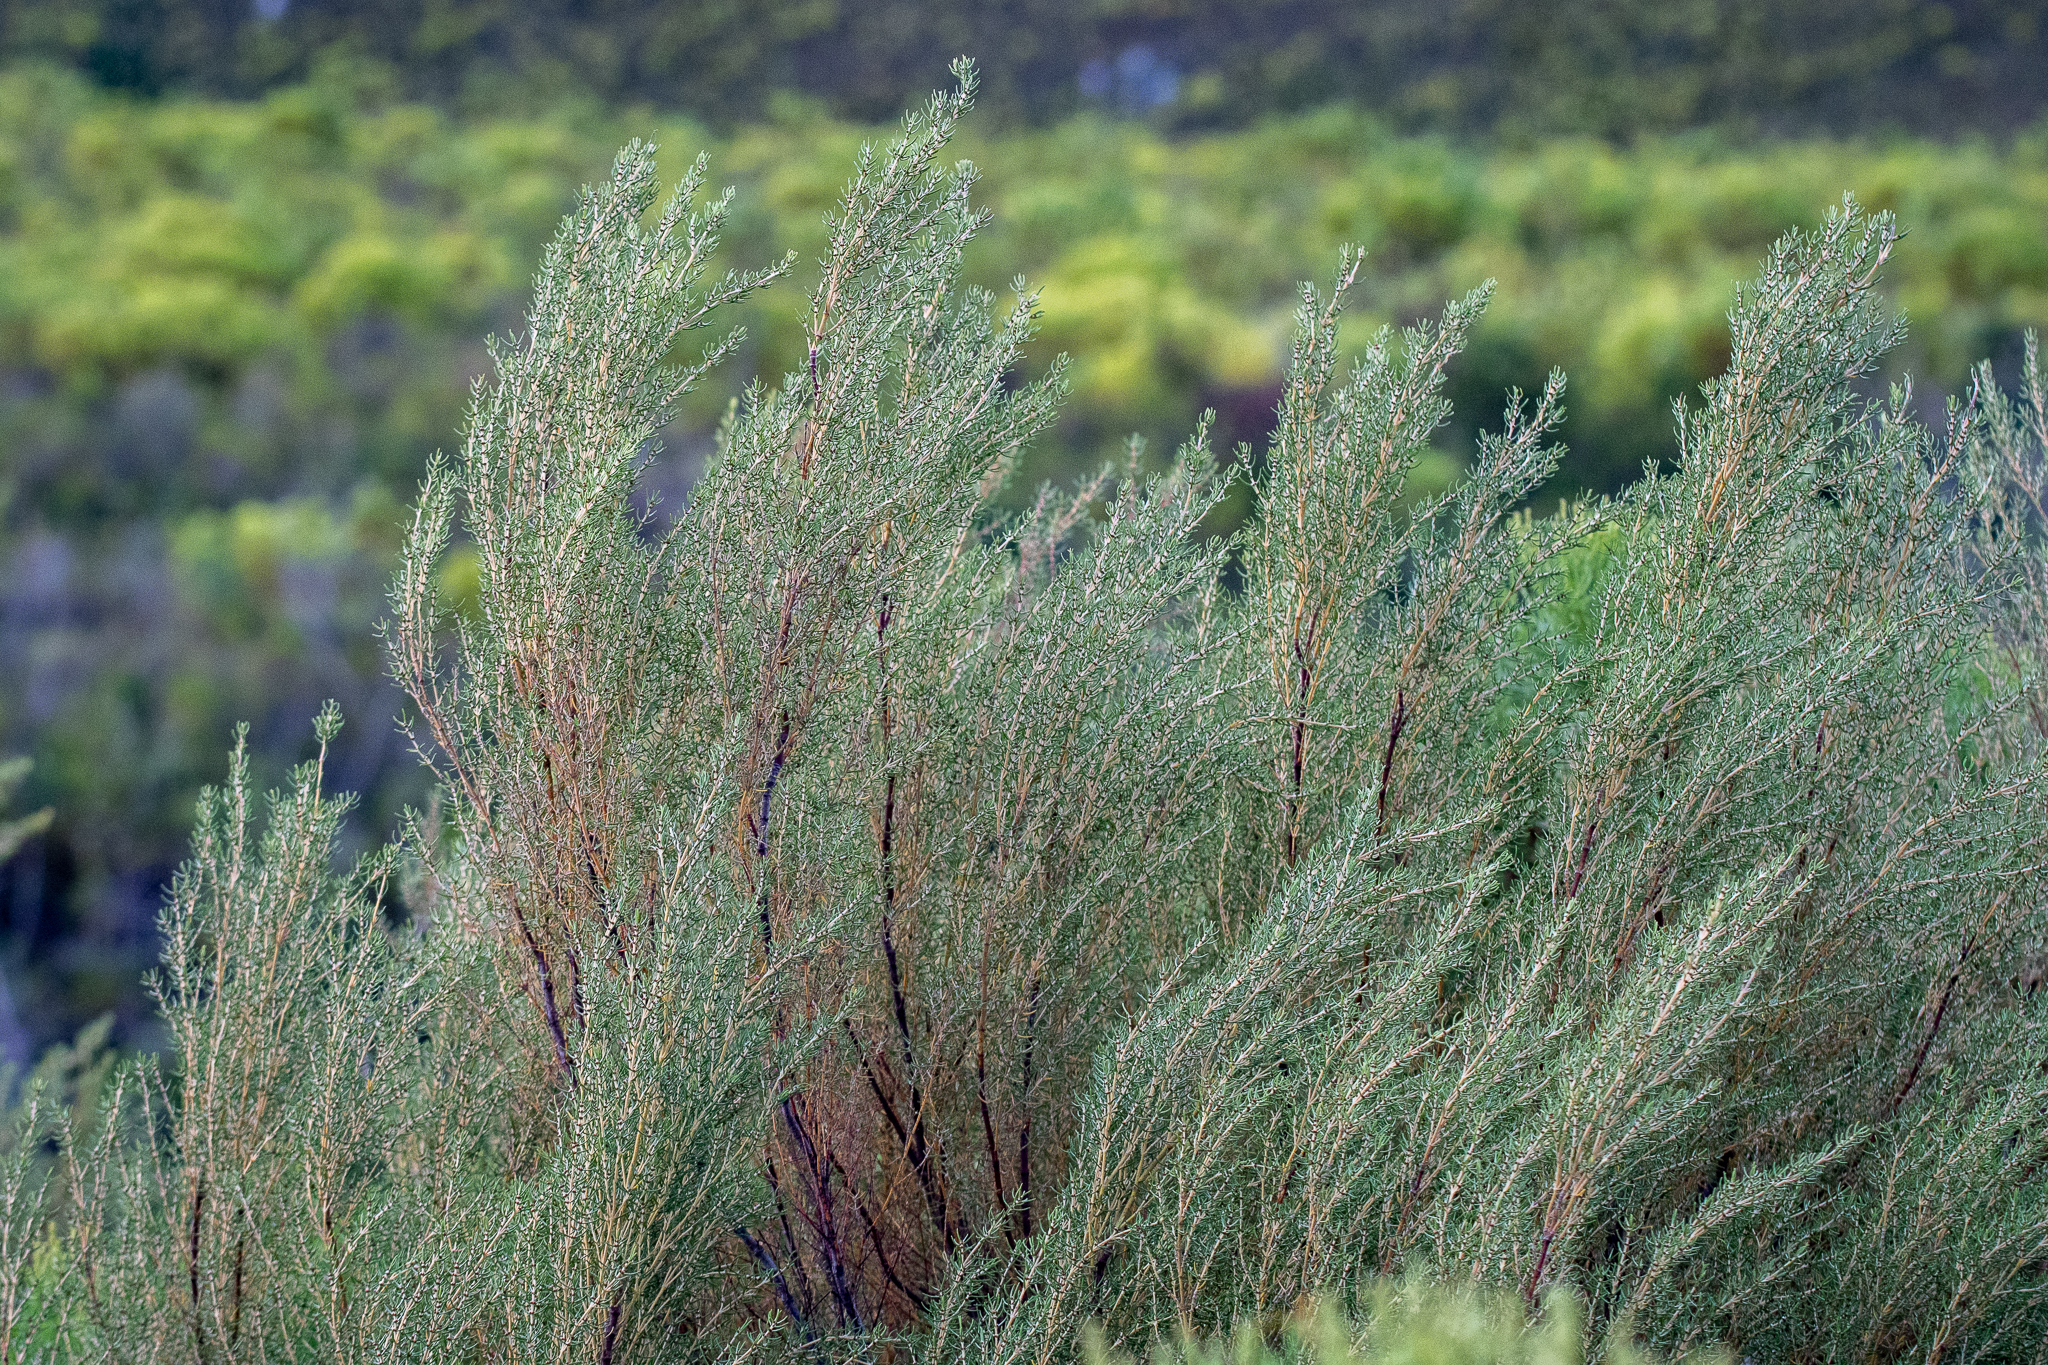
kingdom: Plantae
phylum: Tracheophyta
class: Magnoliopsida
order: Cornales
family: Grubbiaceae
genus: Grubbia
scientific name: Grubbia rosmarinifolia
